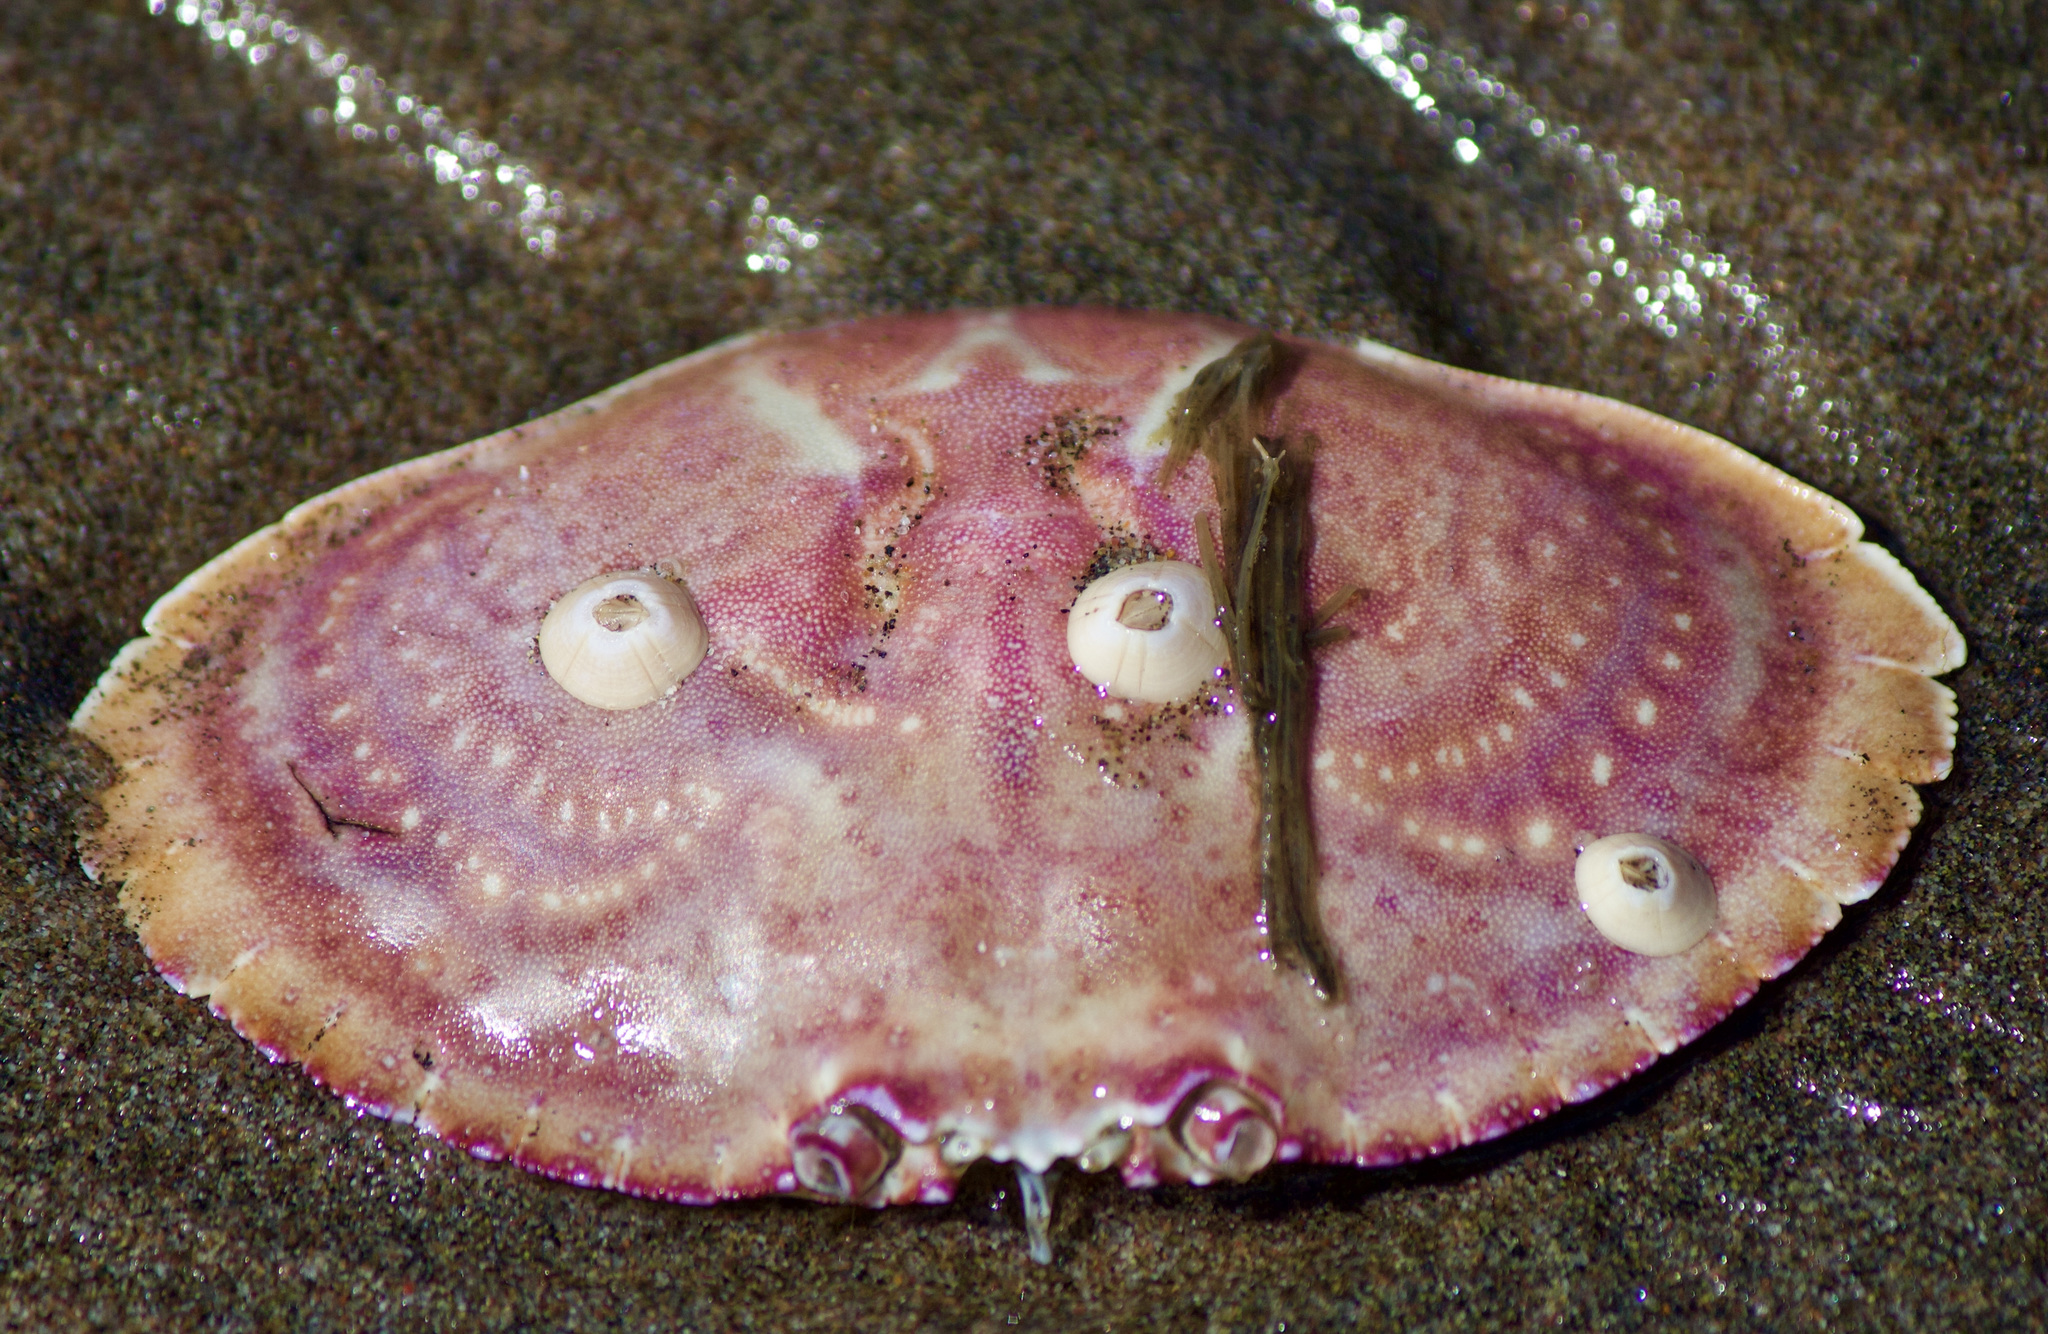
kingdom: Animalia
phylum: Arthropoda
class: Malacostraca
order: Decapoda
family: Cancridae
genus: Cancer
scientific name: Cancer plebejus
